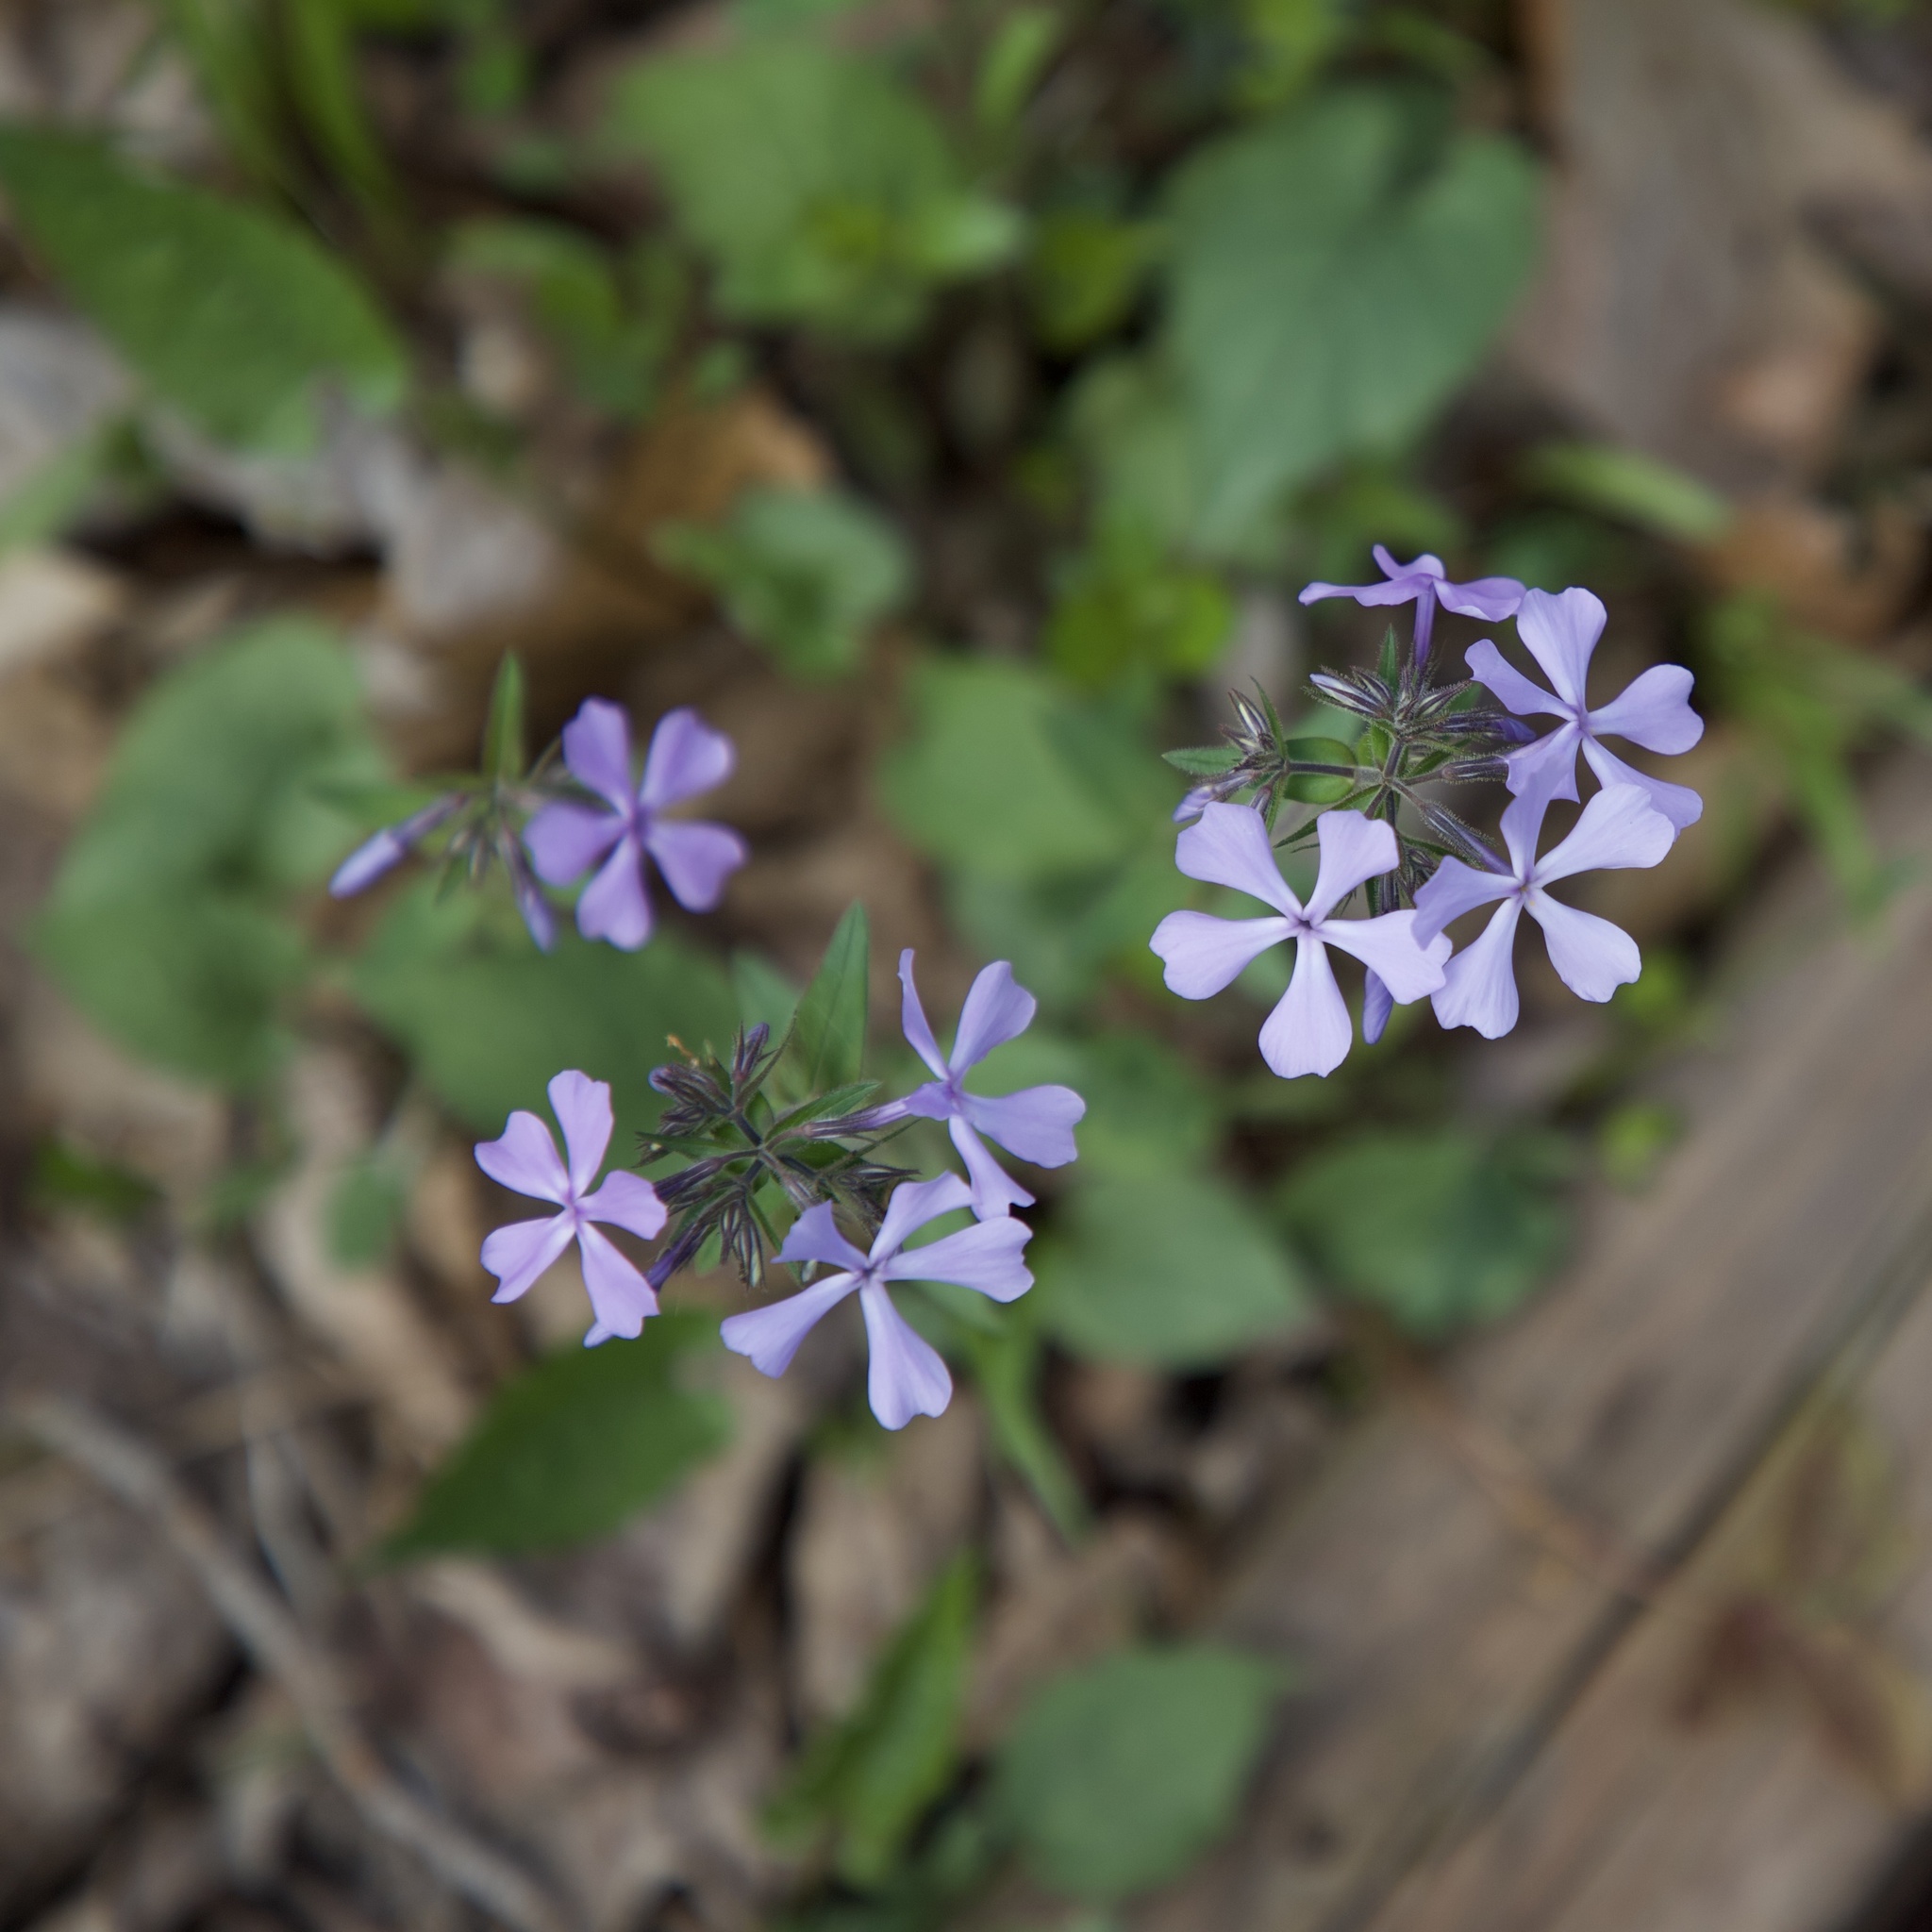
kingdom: Plantae
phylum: Tracheophyta
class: Magnoliopsida
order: Ericales
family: Polemoniaceae
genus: Phlox
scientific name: Phlox divaricata
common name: Blue phlox
